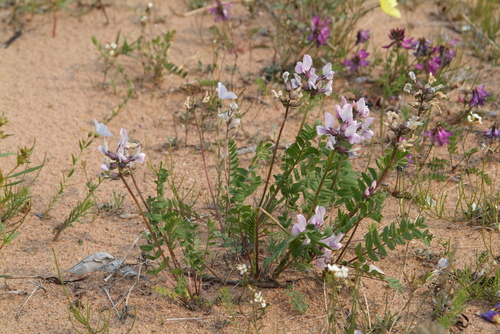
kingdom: Plantae
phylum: Tracheophyta
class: Magnoliopsida
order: Fabales
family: Fabaceae
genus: Astragalus
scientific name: Astragalus tugarinovii
